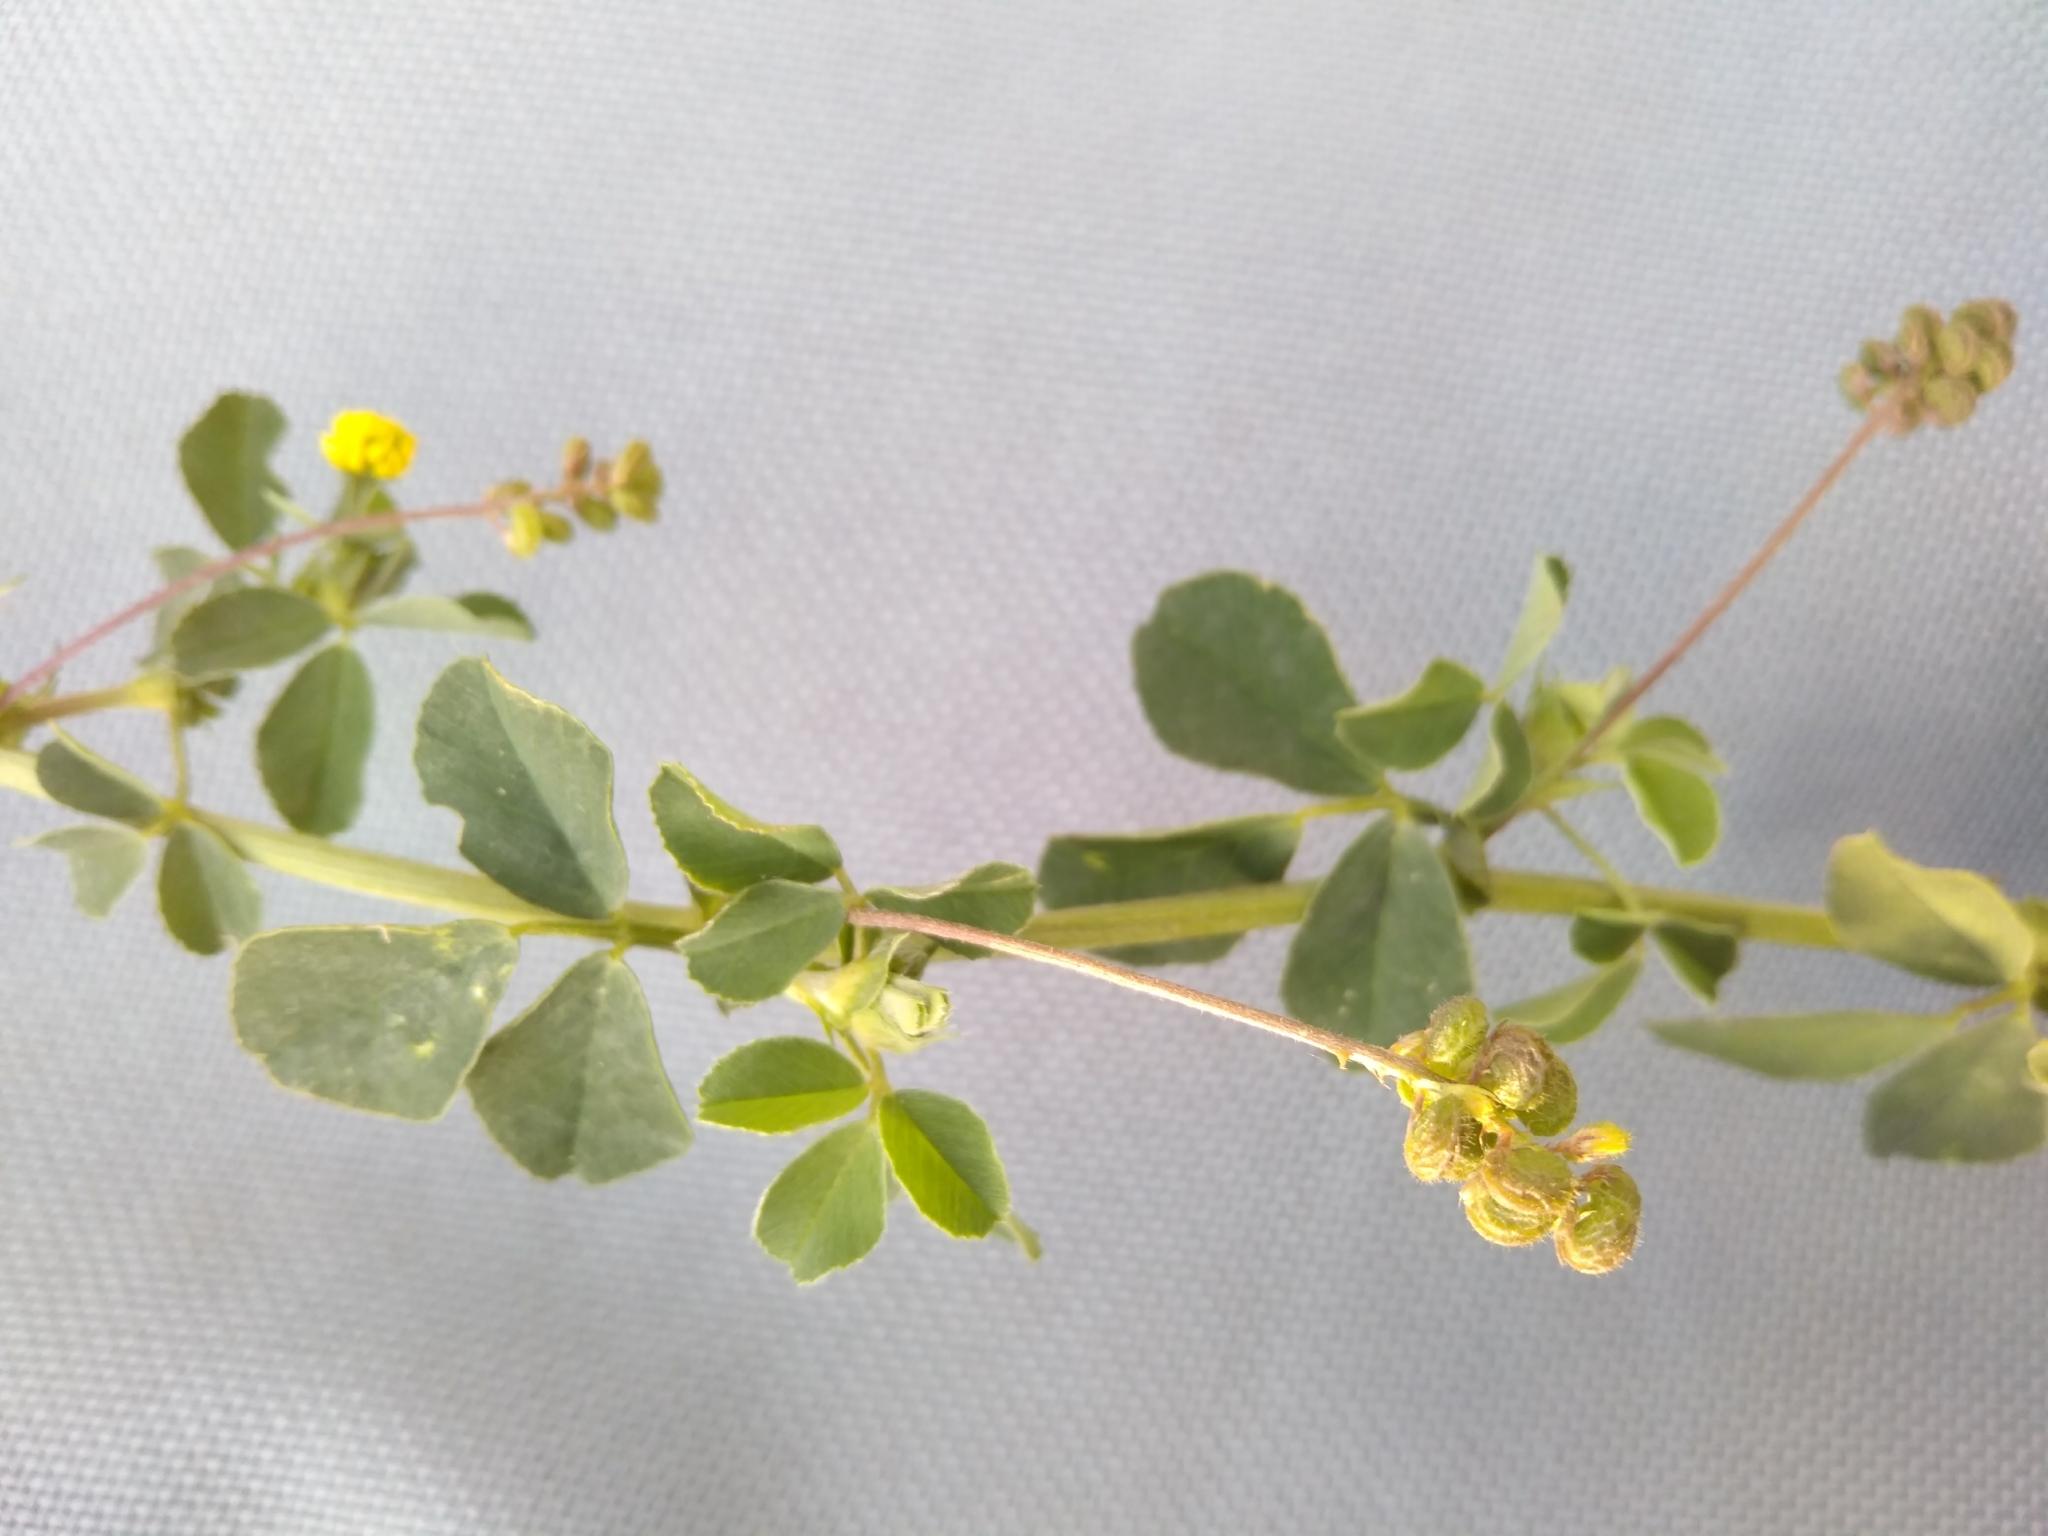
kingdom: Plantae
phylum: Tracheophyta
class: Magnoliopsida
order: Fabales
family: Fabaceae
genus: Medicago
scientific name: Medicago lupulina
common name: Black medick
